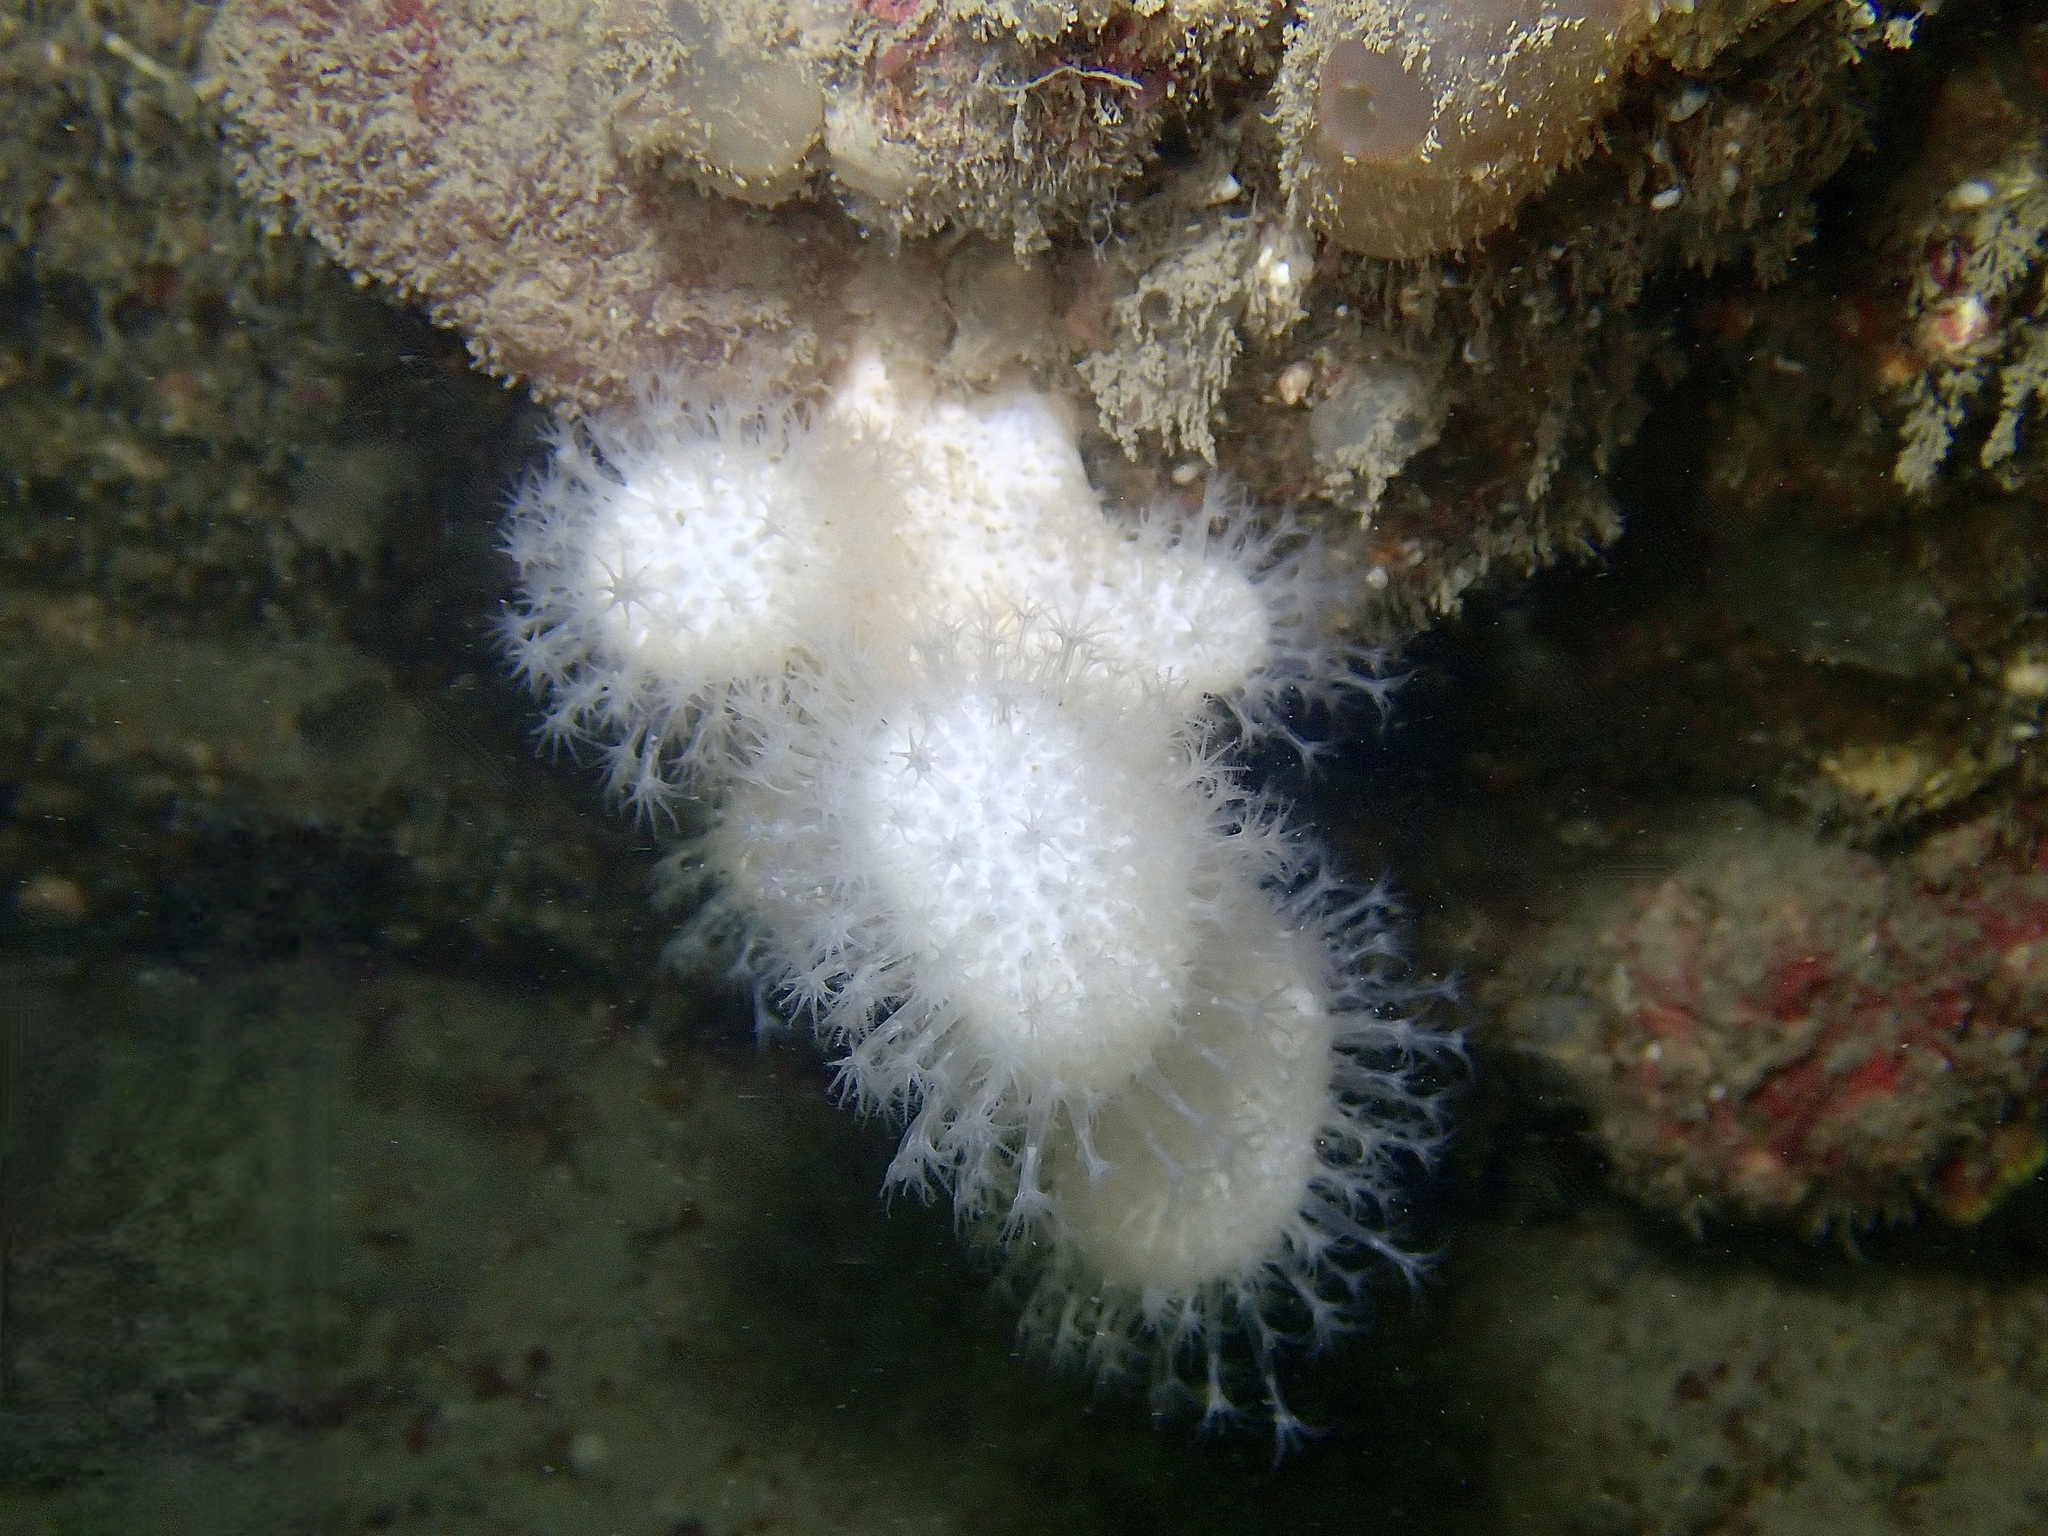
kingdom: Animalia
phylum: Cnidaria
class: Anthozoa
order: Malacalcyonacea
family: Alcyoniidae
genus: Alcyonium
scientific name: Alcyonium digitatum
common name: Dead man's fingers
